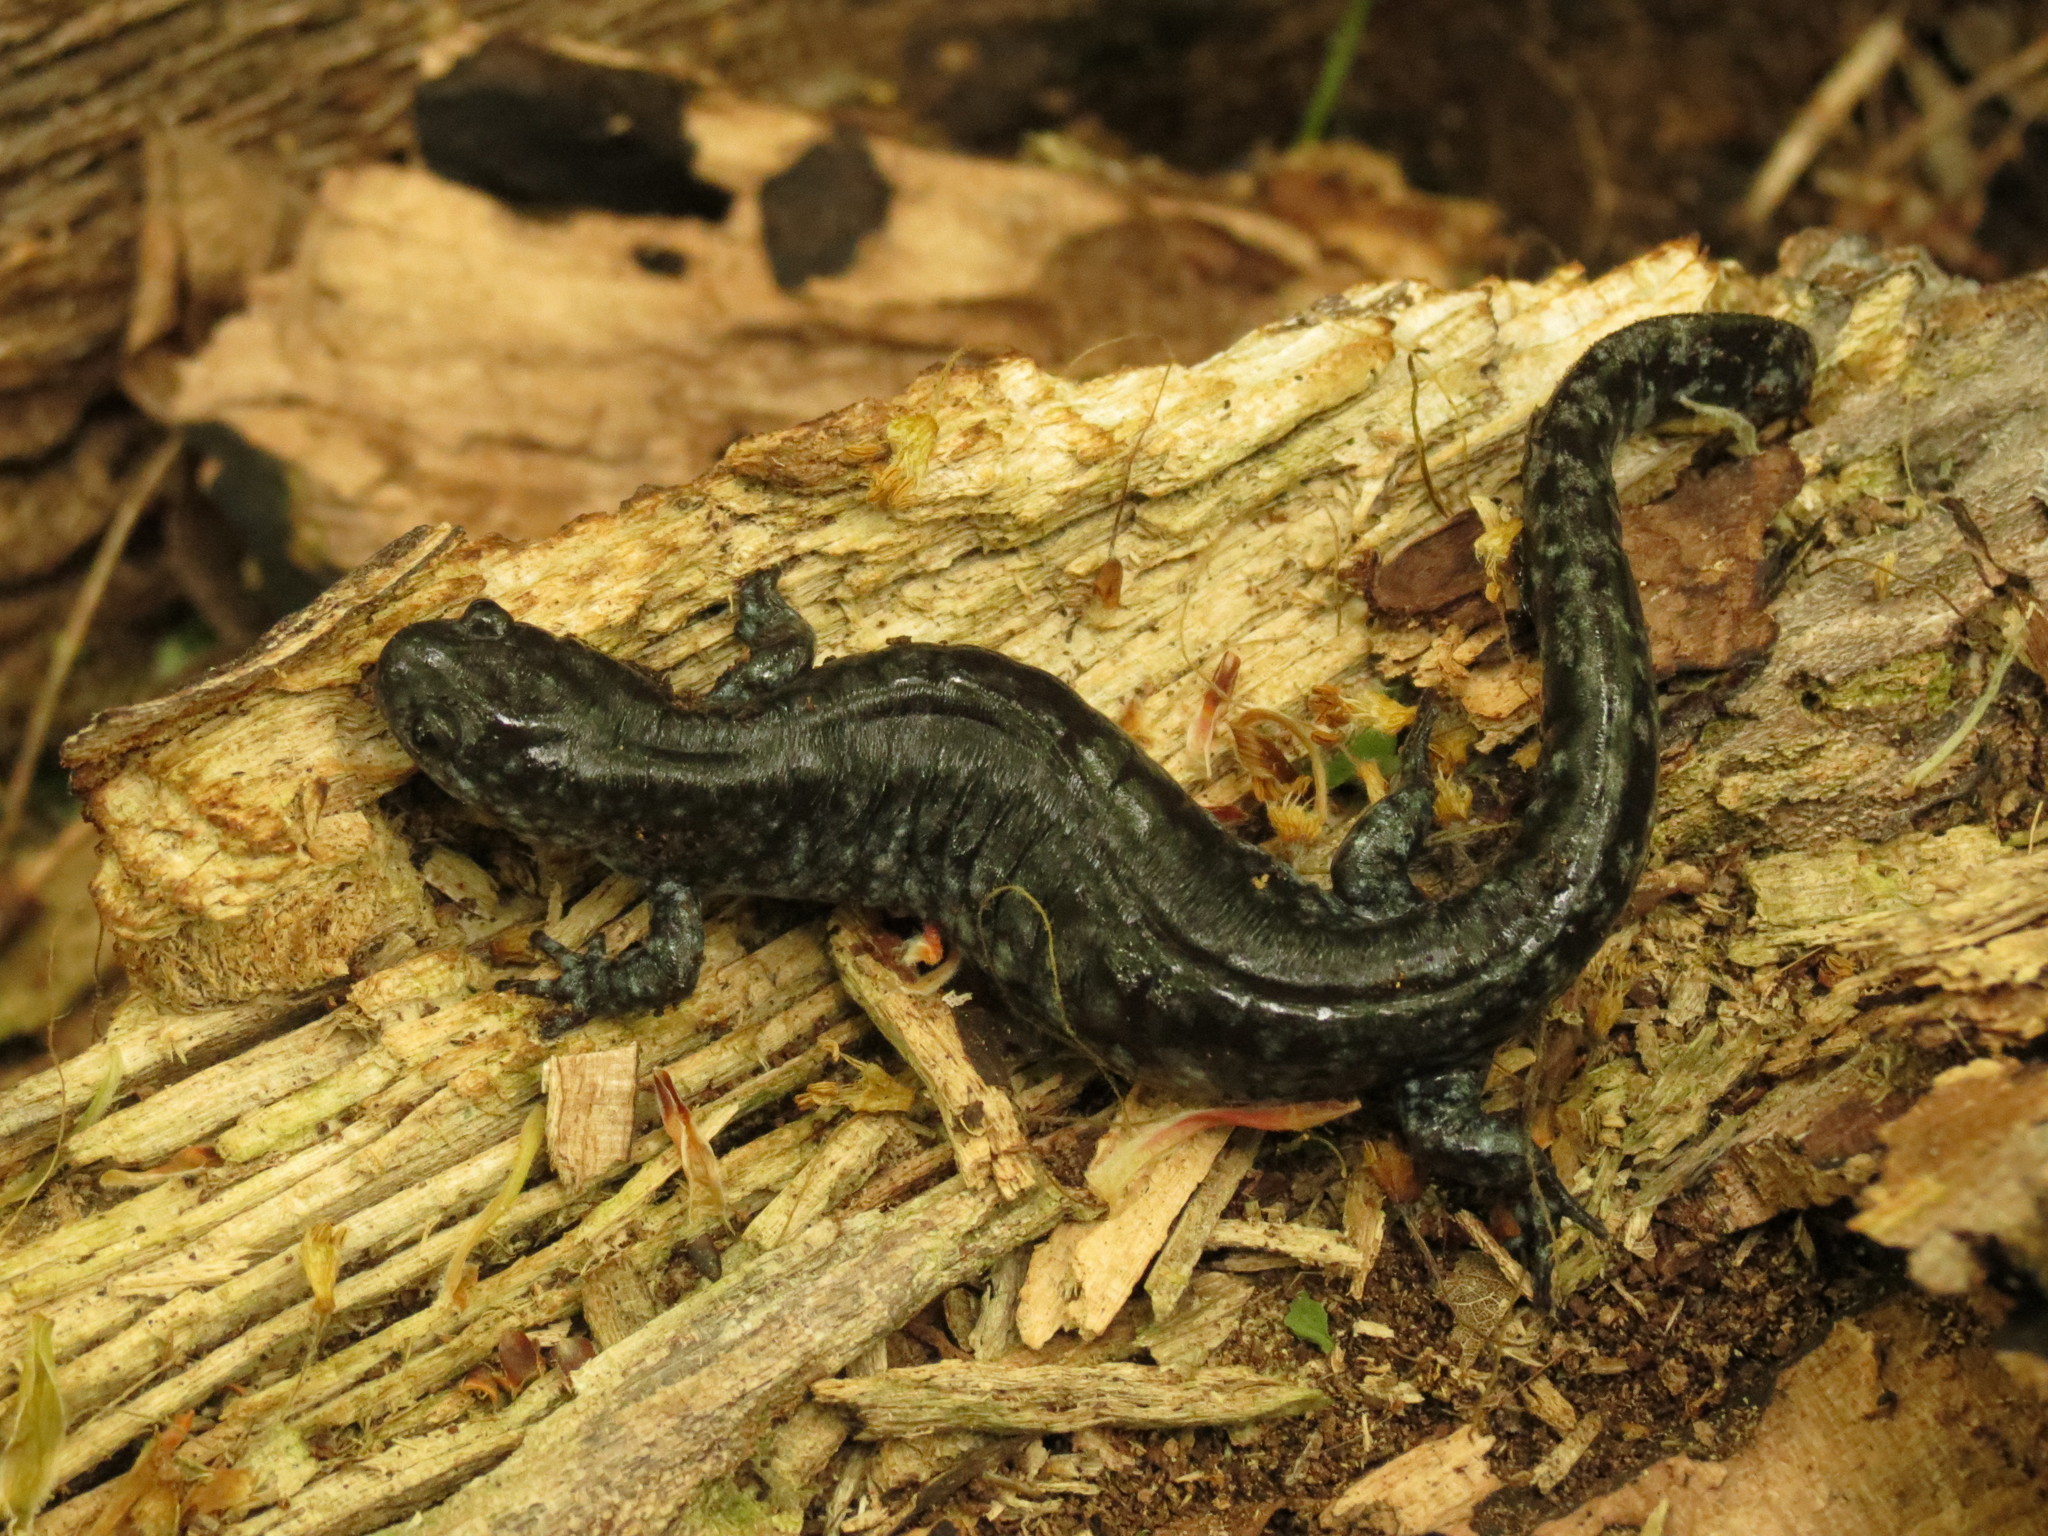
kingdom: Animalia
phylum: Chordata
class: Amphibia
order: Caudata
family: Ambystomatidae
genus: Ambystoma
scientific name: Ambystoma
